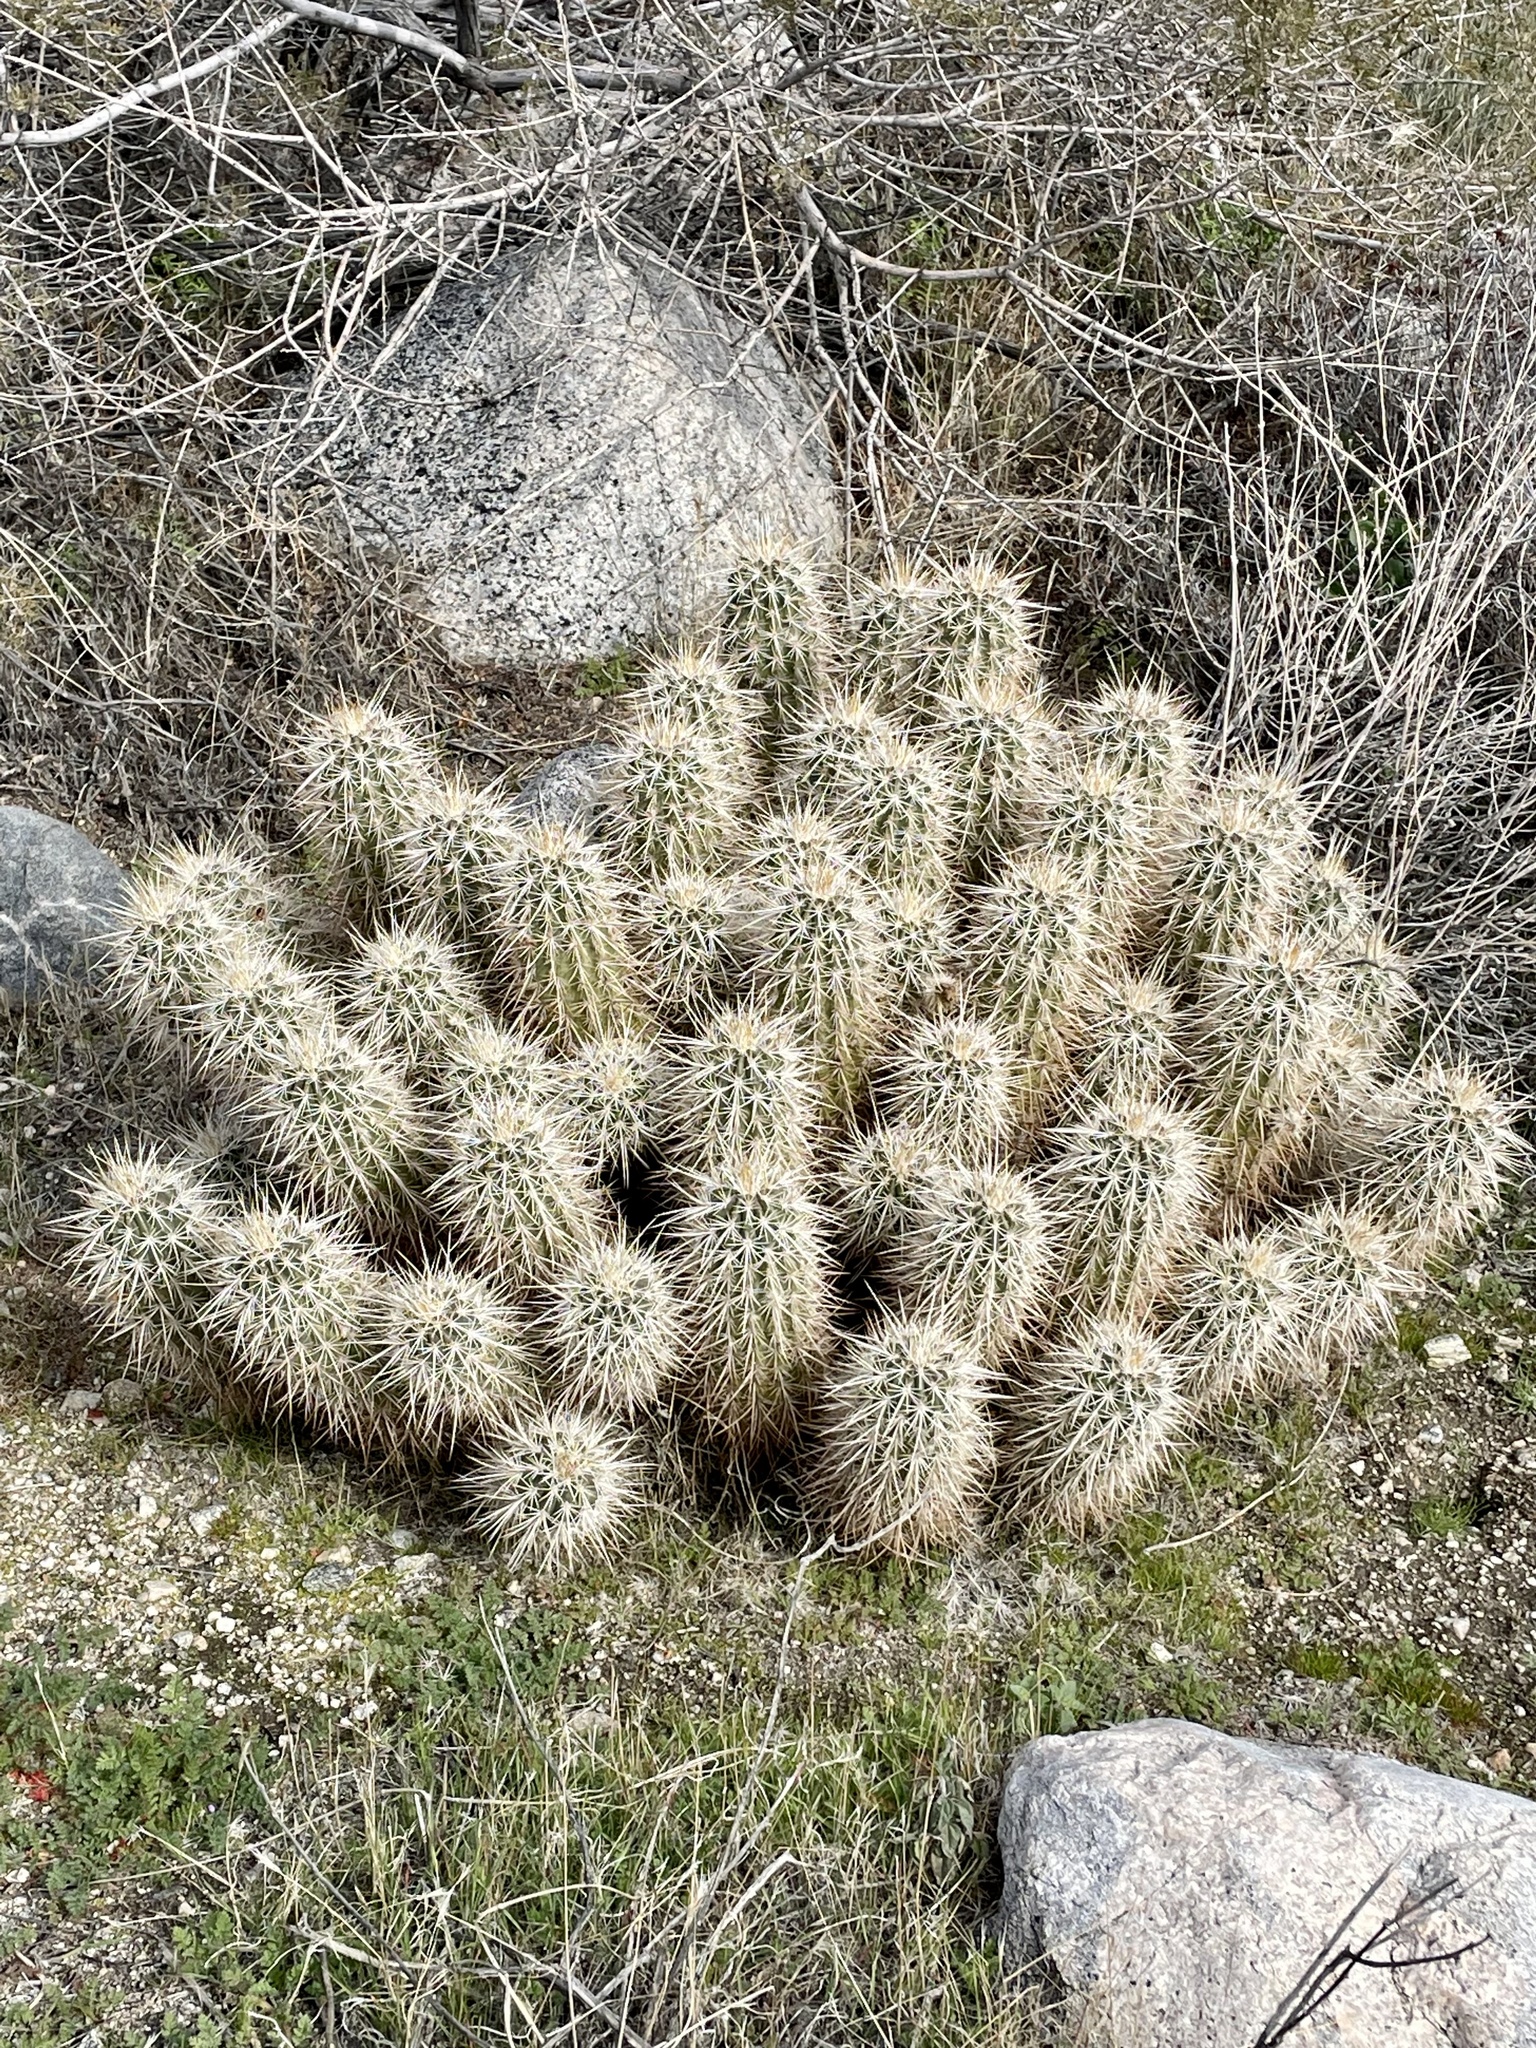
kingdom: Plantae
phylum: Tracheophyta
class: Magnoliopsida
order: Caryophyllales
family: Cactaceae
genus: Echinocereus
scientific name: Echinocereus engelmannii
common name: Engelmann's hedgehog cactus
